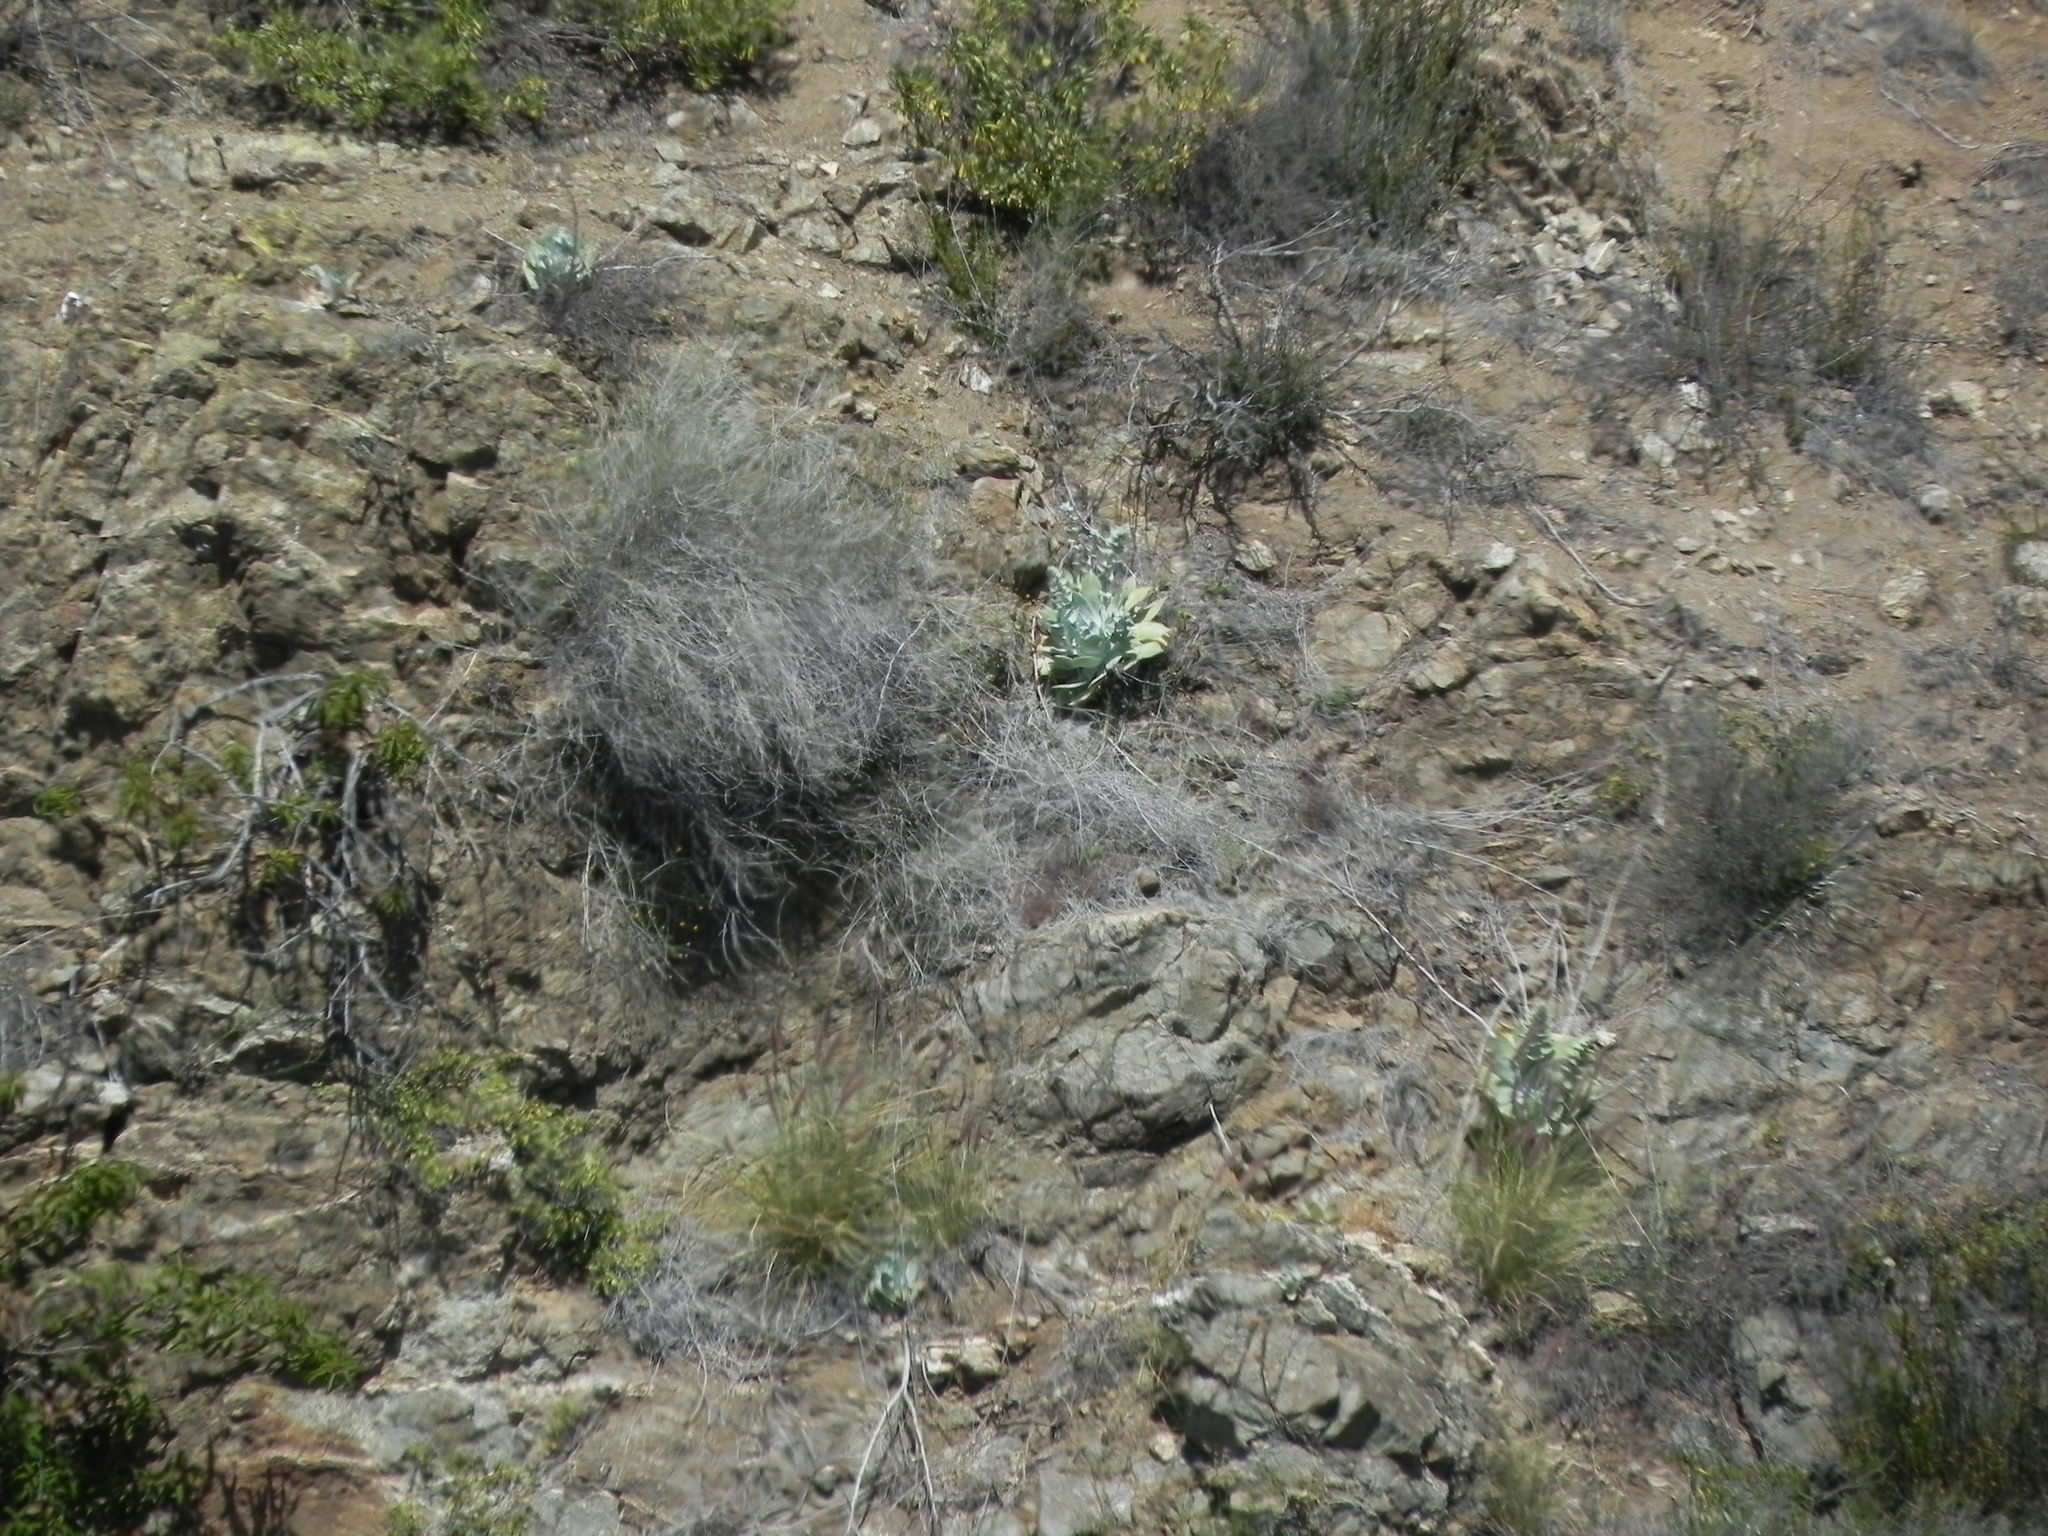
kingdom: Plantae
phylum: Tracheophyta
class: Magnoliopsida
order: Saxifragales
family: Crassulaceae
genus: Dudleya
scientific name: Dudleya pulverulenta
